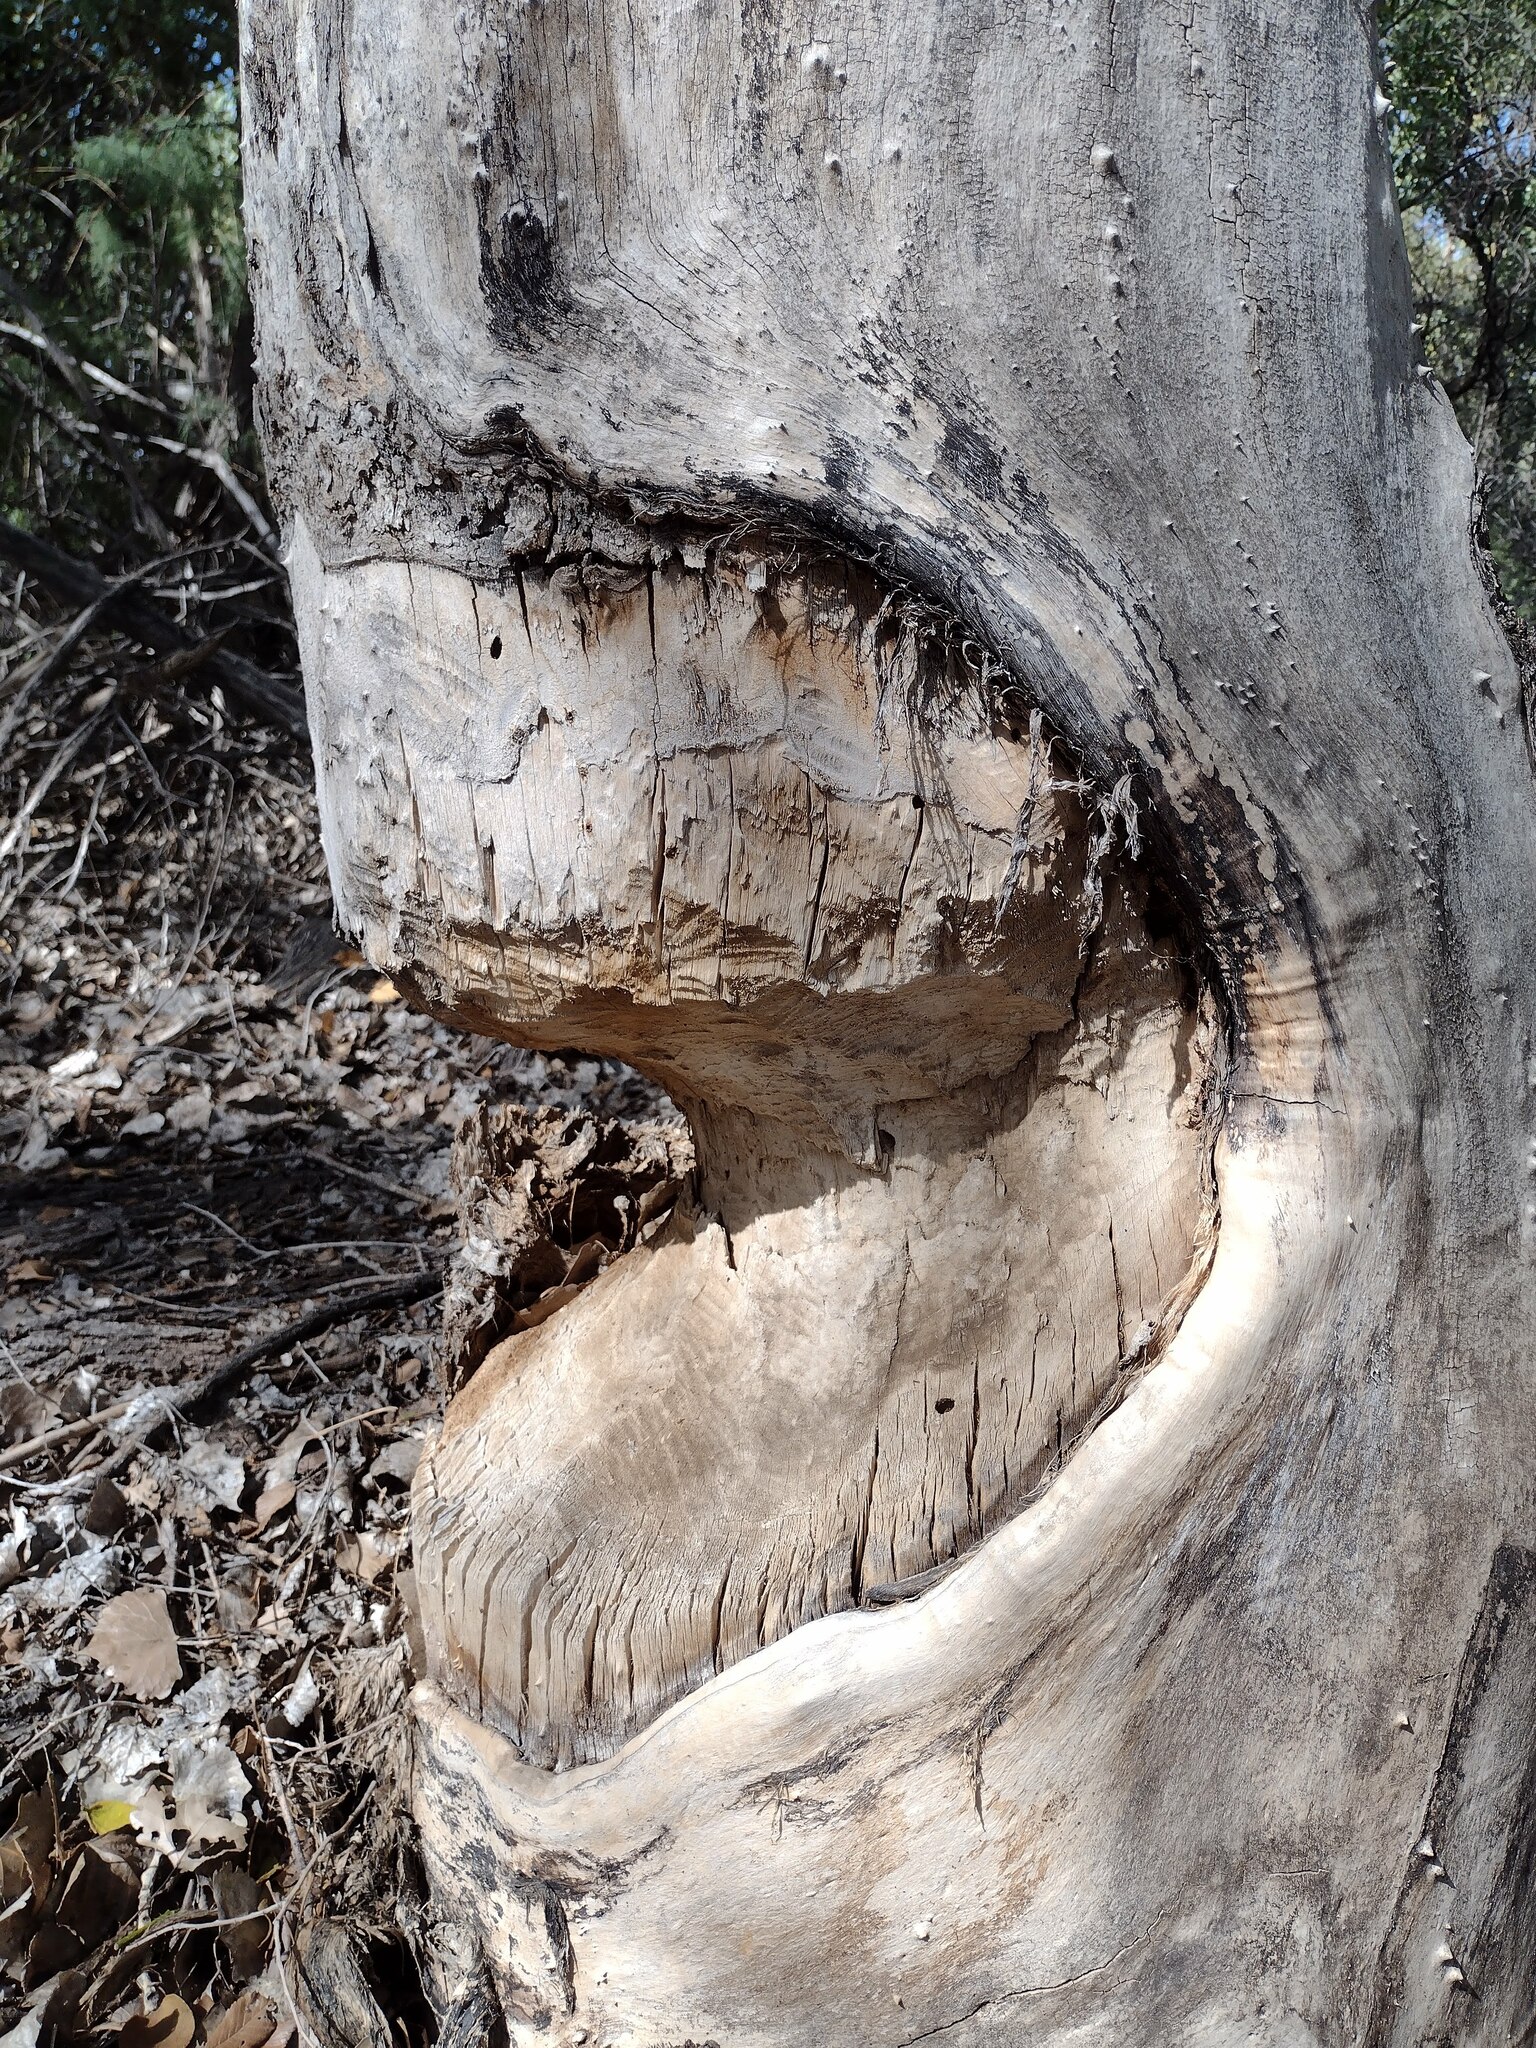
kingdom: Animalia
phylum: Chordata
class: Mammalia
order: Rodentia
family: Castoridae
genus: Castor
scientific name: Castor canadensis
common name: American beaver
